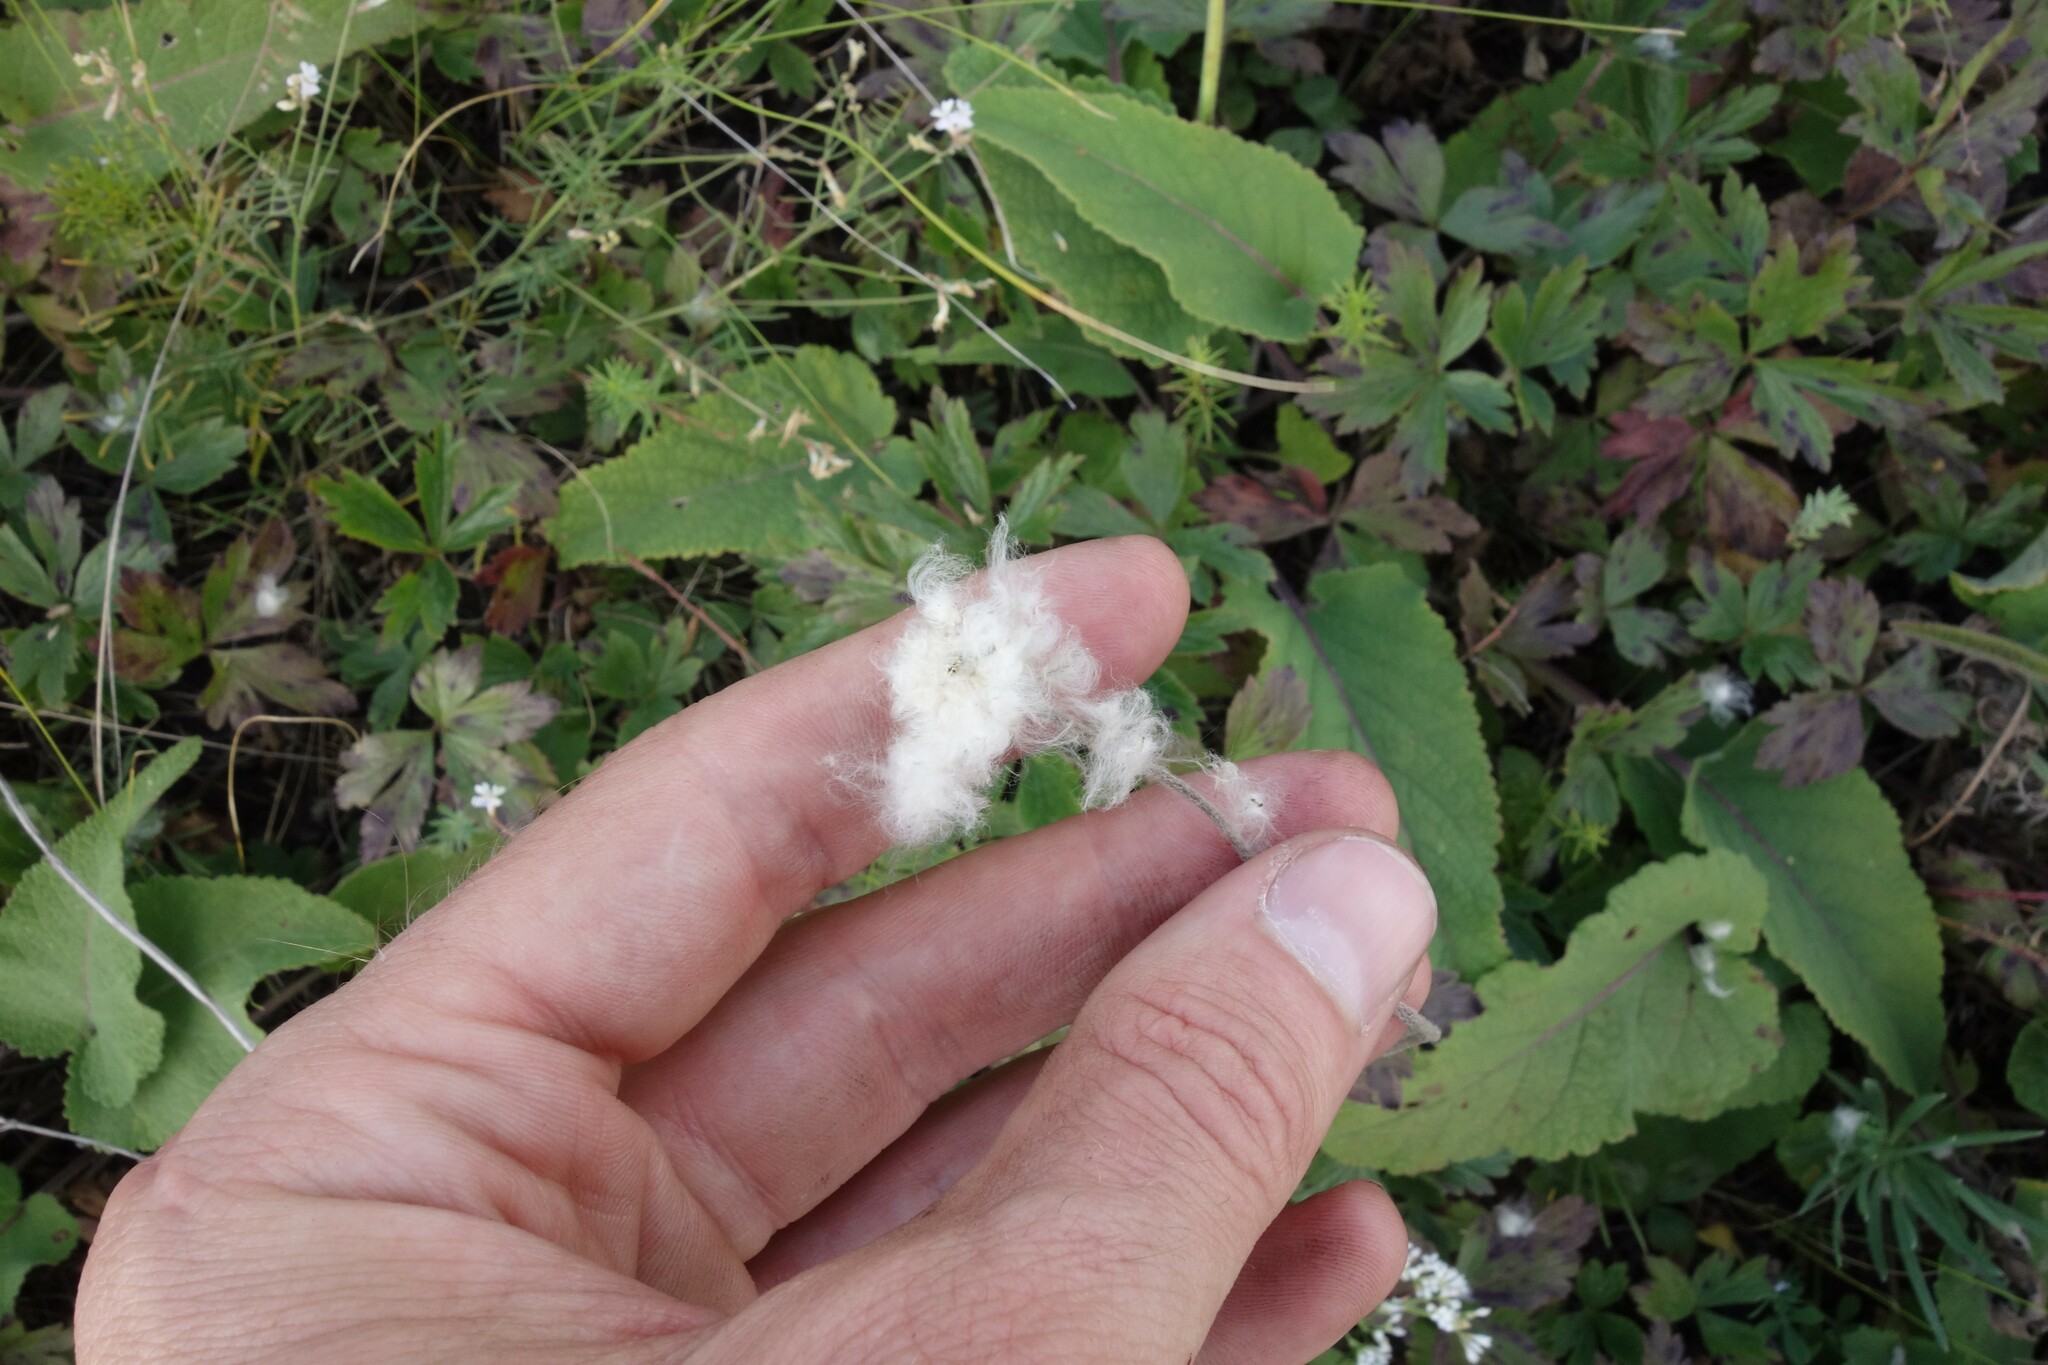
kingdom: Plantae
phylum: Tracheophyta
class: Magnoliopsida
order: Ranunculales
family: Ranunculaceae
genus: Anemone
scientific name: Anemone sylvestris
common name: Snowdrop anemone
